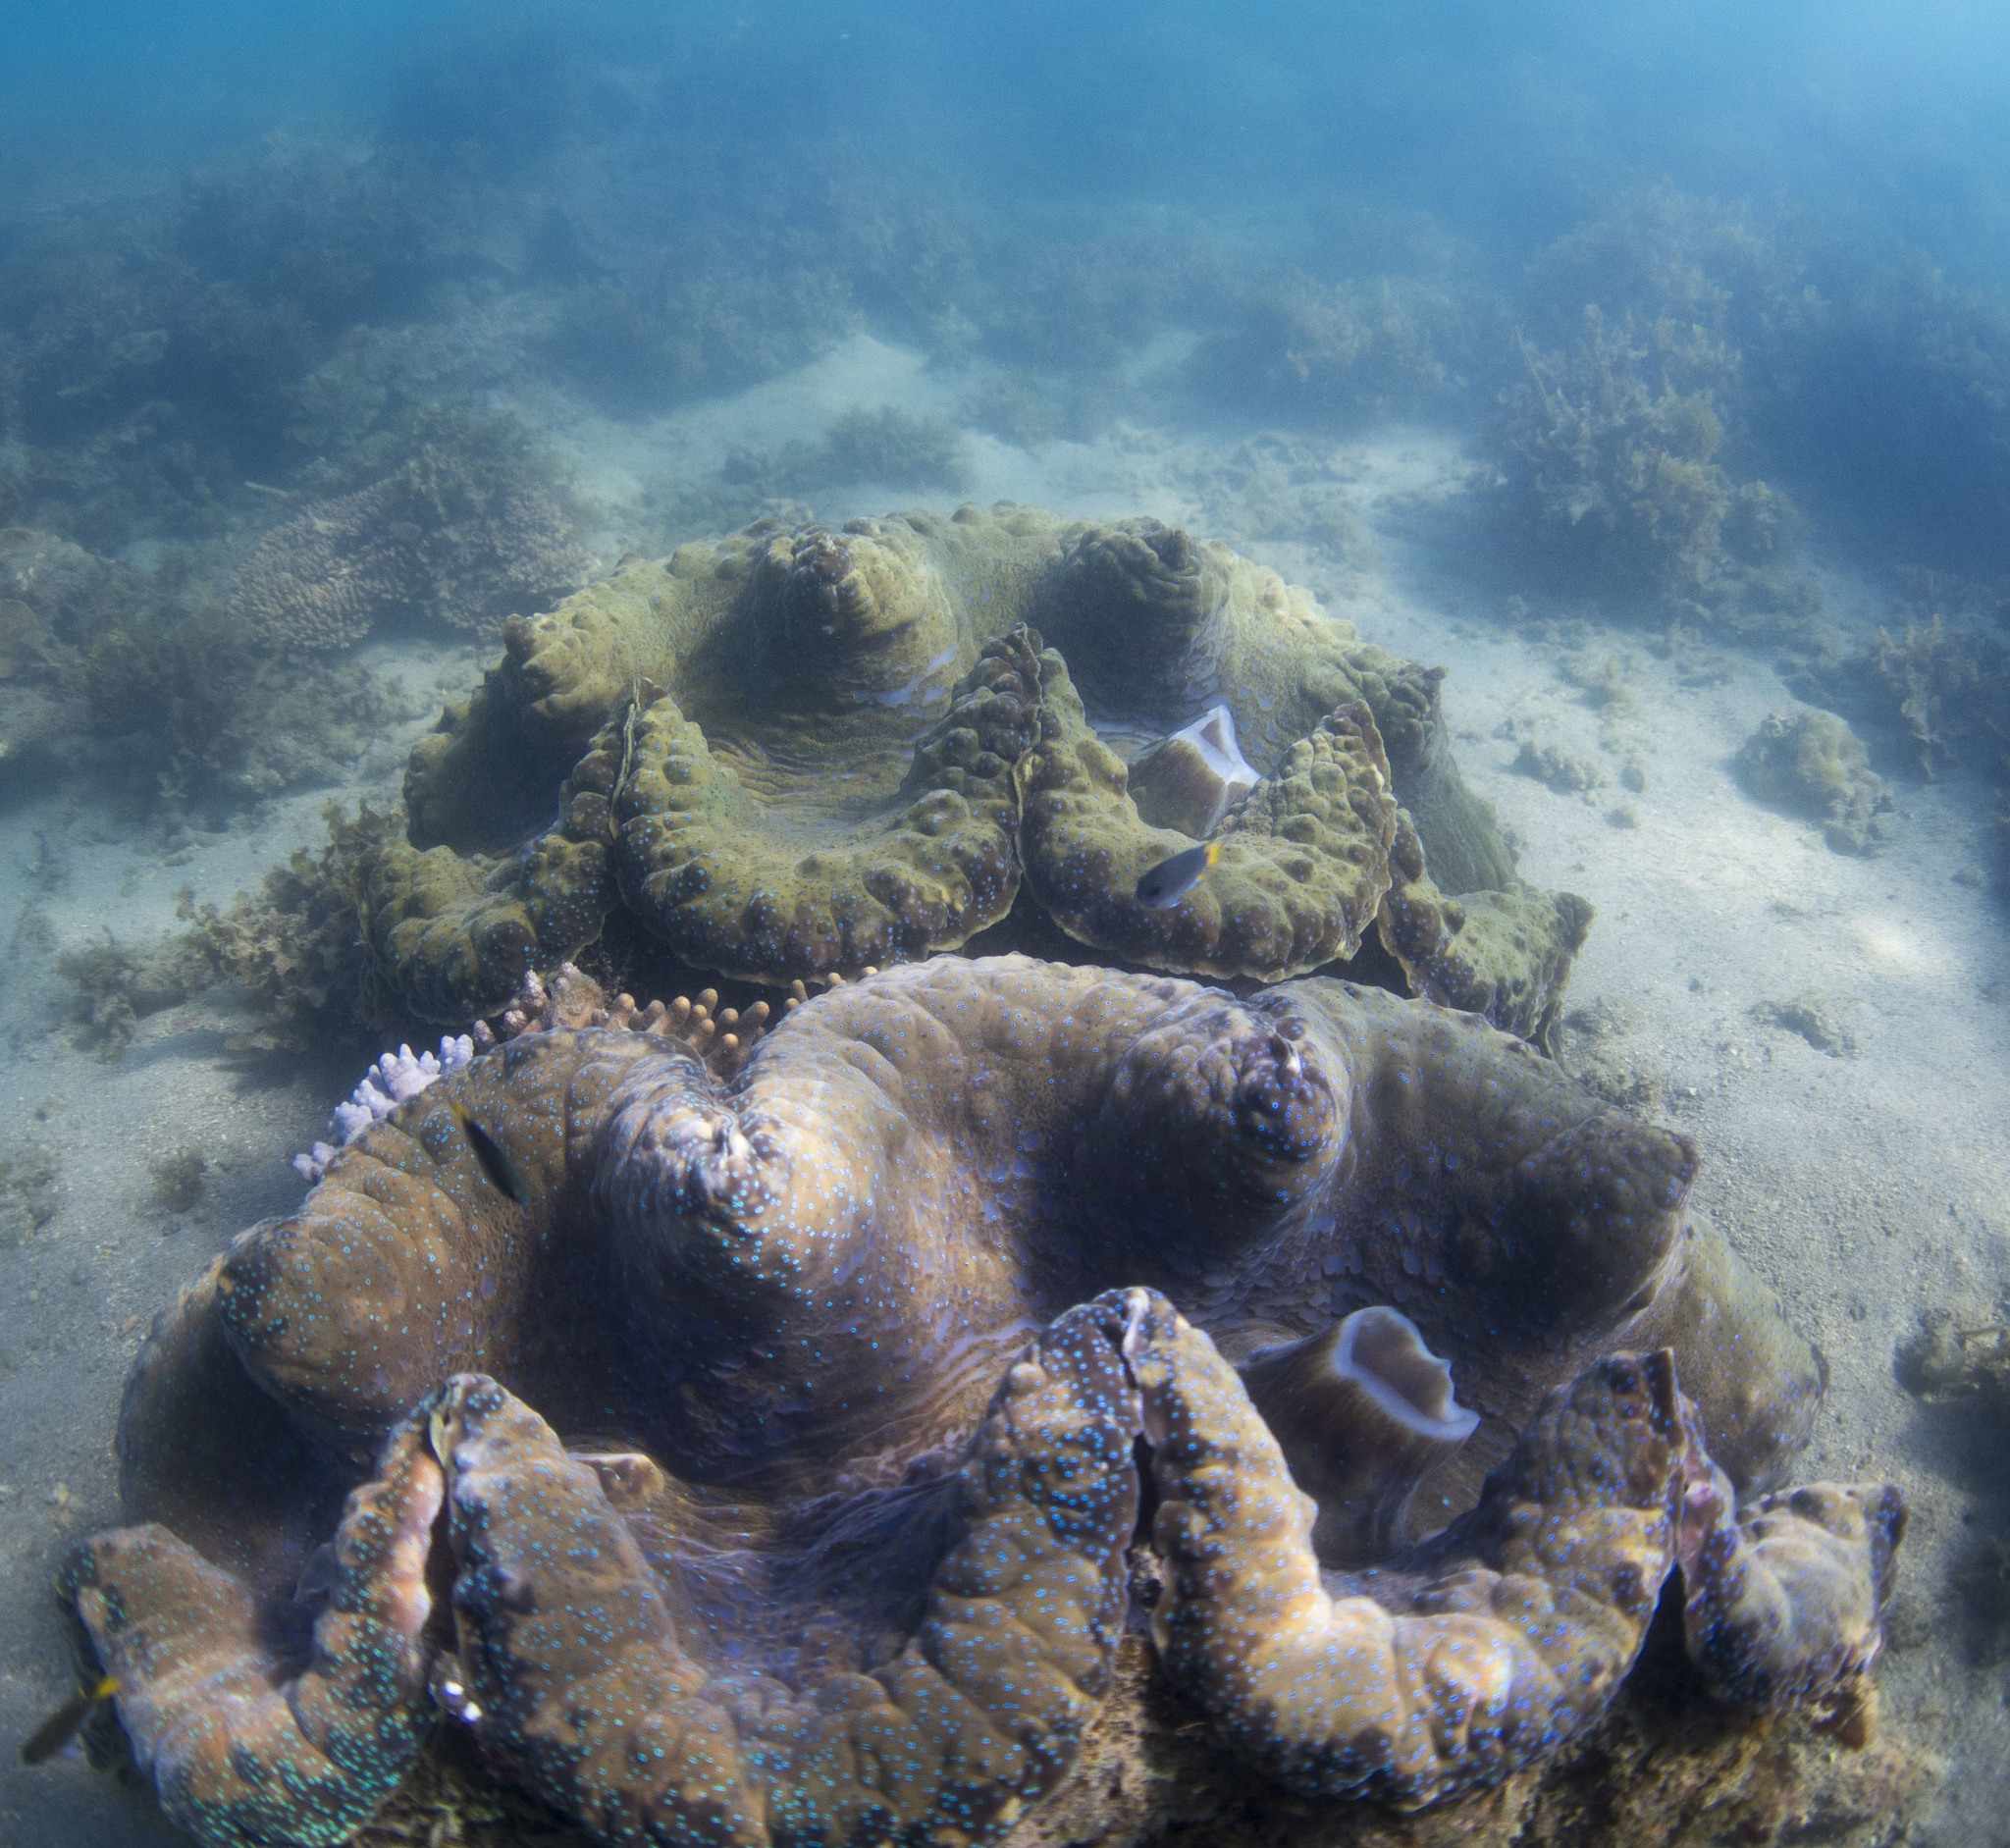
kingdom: Animalia
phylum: Mollusca
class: Bivalvia
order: Cardiida
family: Cardiidae
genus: Tridacna
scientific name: Tridacna gigas
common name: Giant clam
